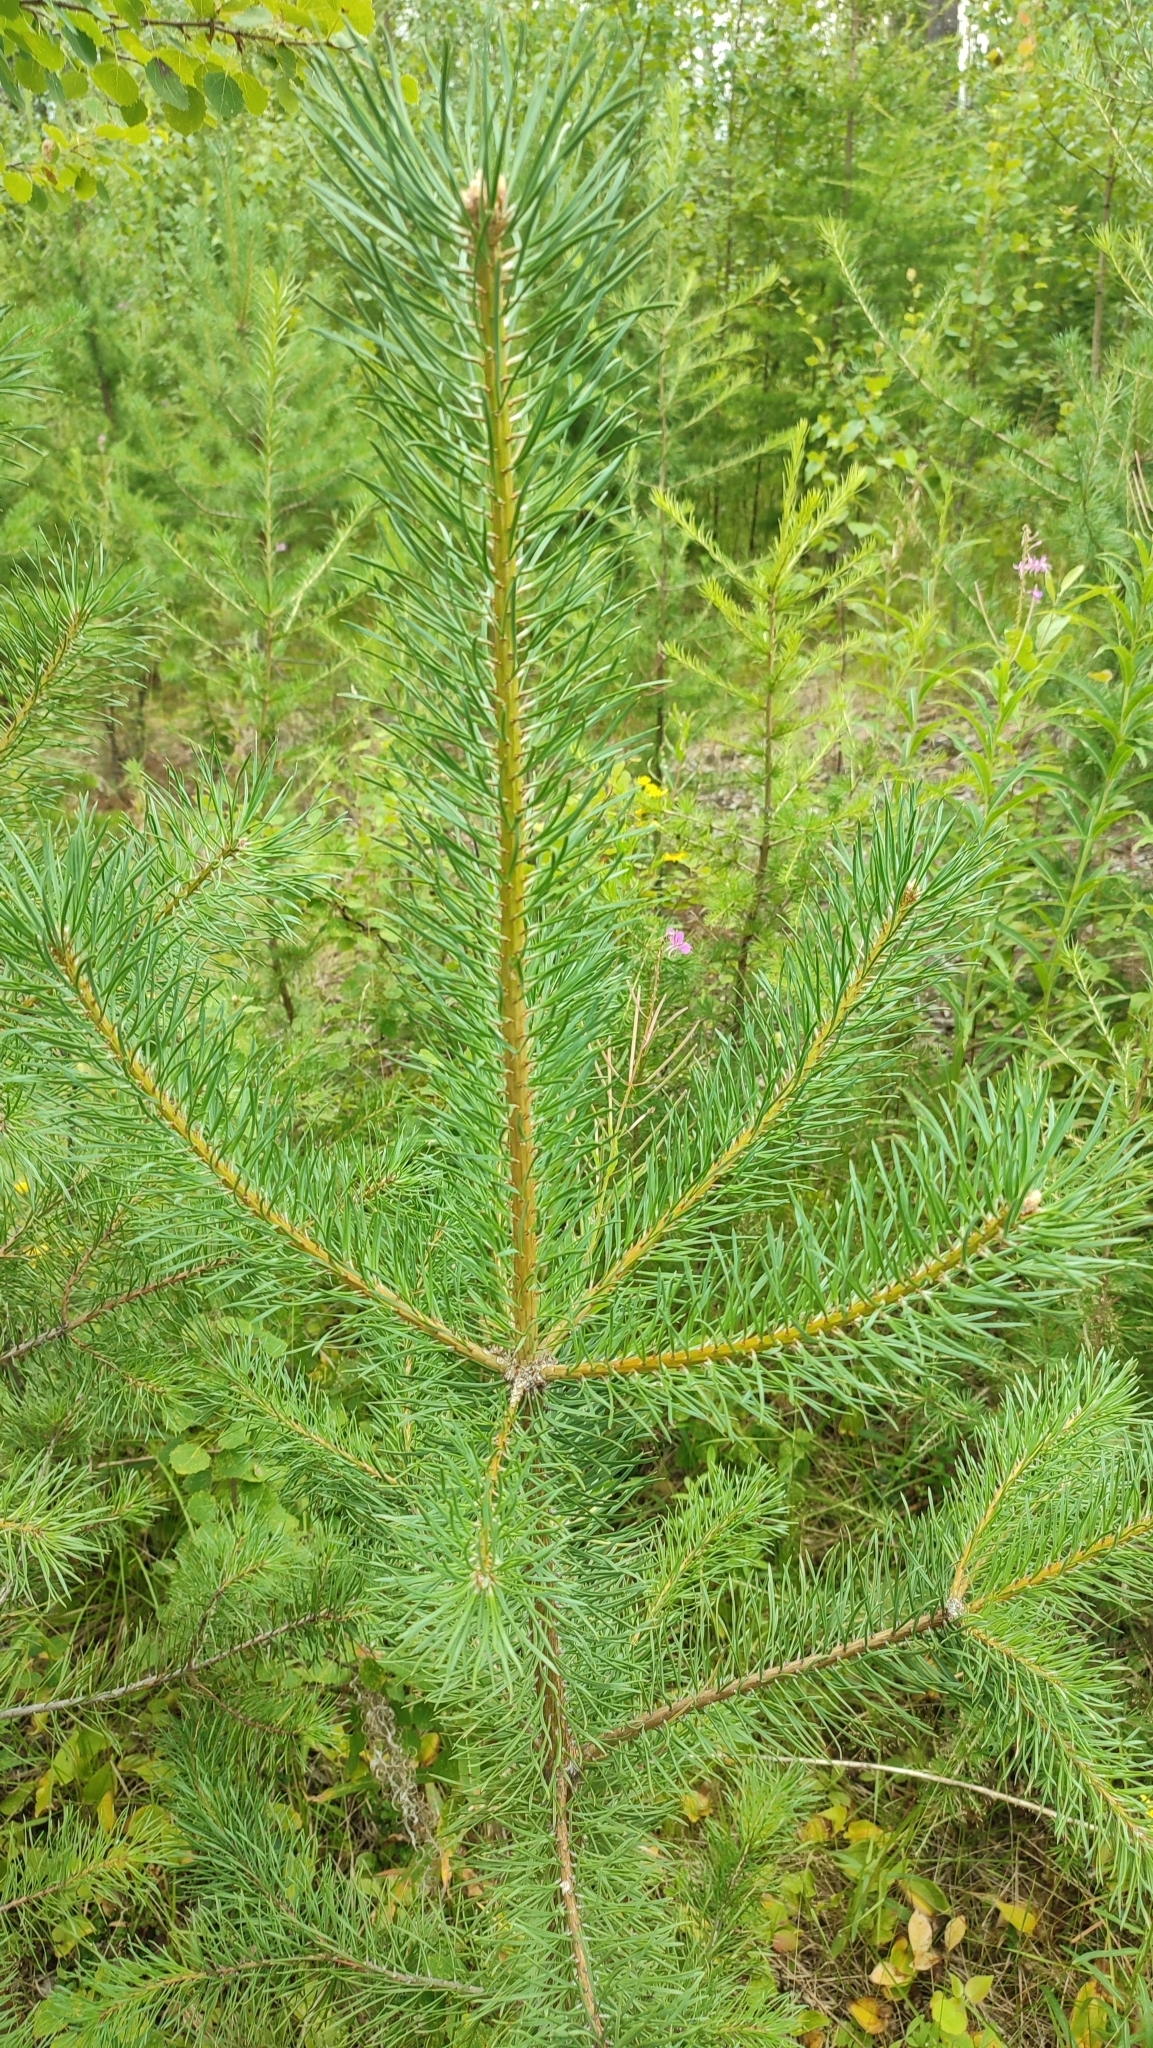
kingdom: Plantae
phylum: Tracheophyta
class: Pinopsida
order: Pinales
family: Pinaceae
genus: Pinus
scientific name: Pinus sylvestris
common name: Scots pine
